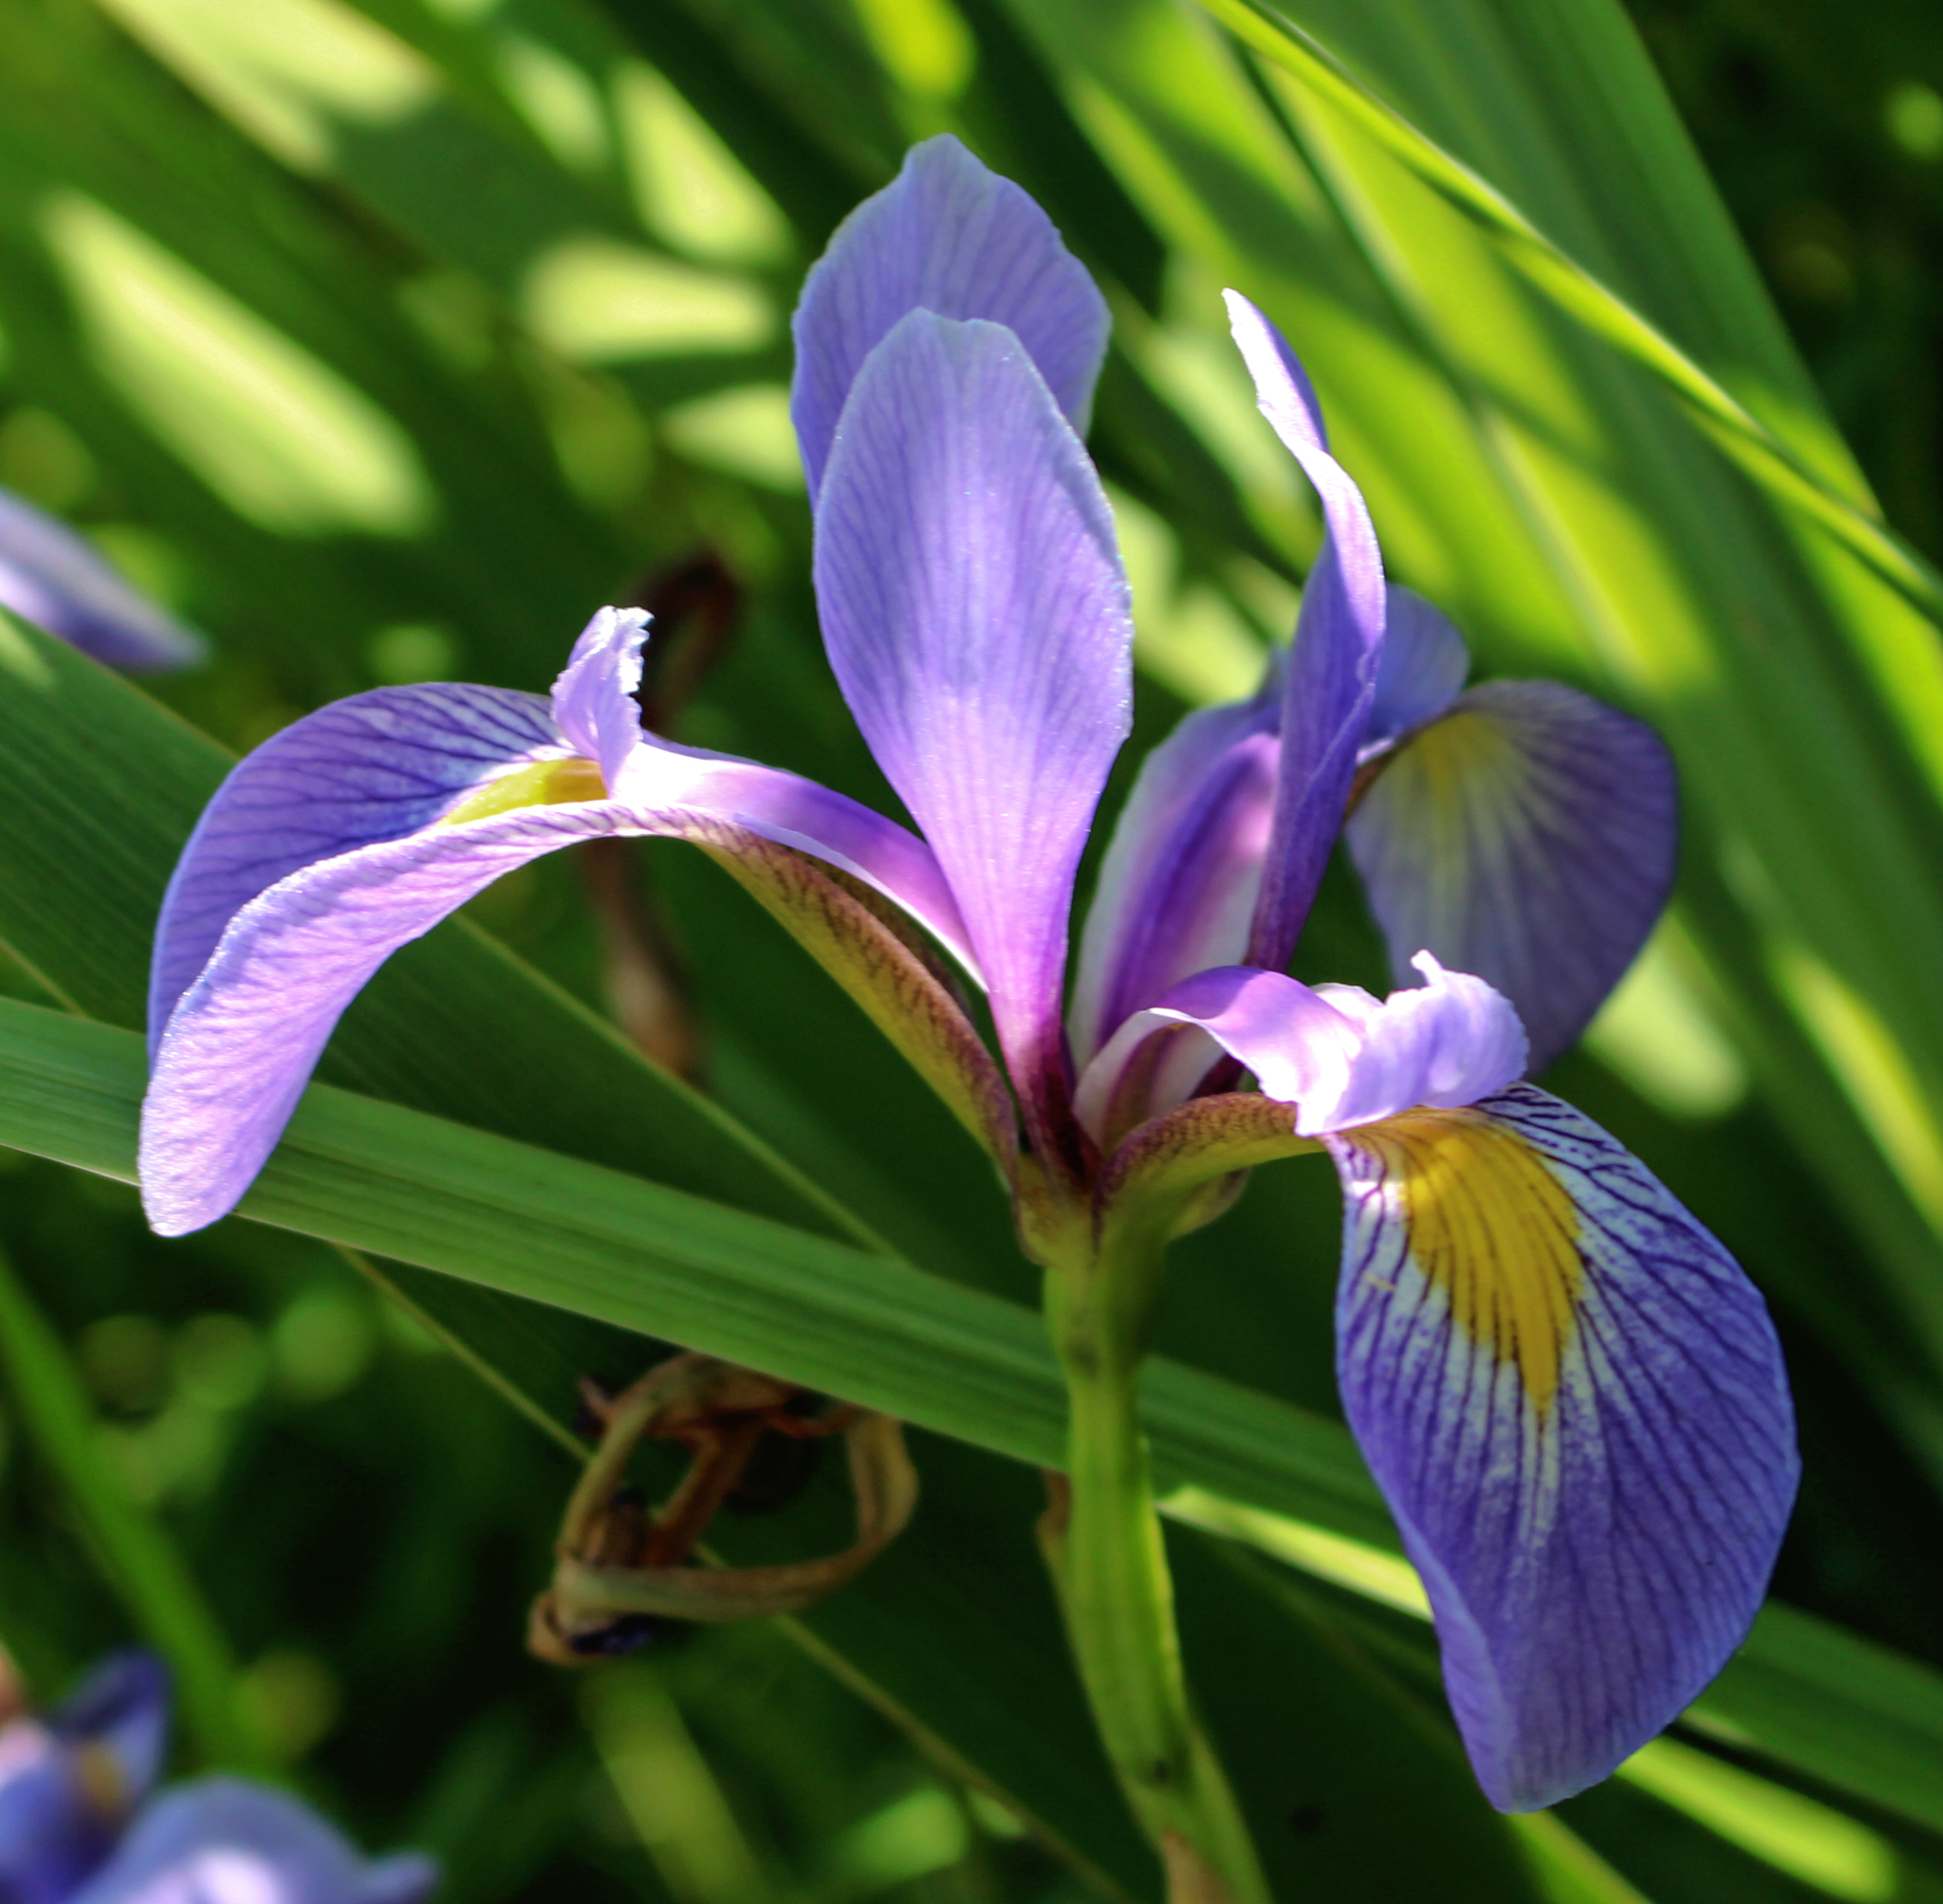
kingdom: Plantae
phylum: Tracheophyta
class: Liliopsida
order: Asparagales
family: Iridaceae
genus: Iris
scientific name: Iris virginica
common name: Southern blue flag
